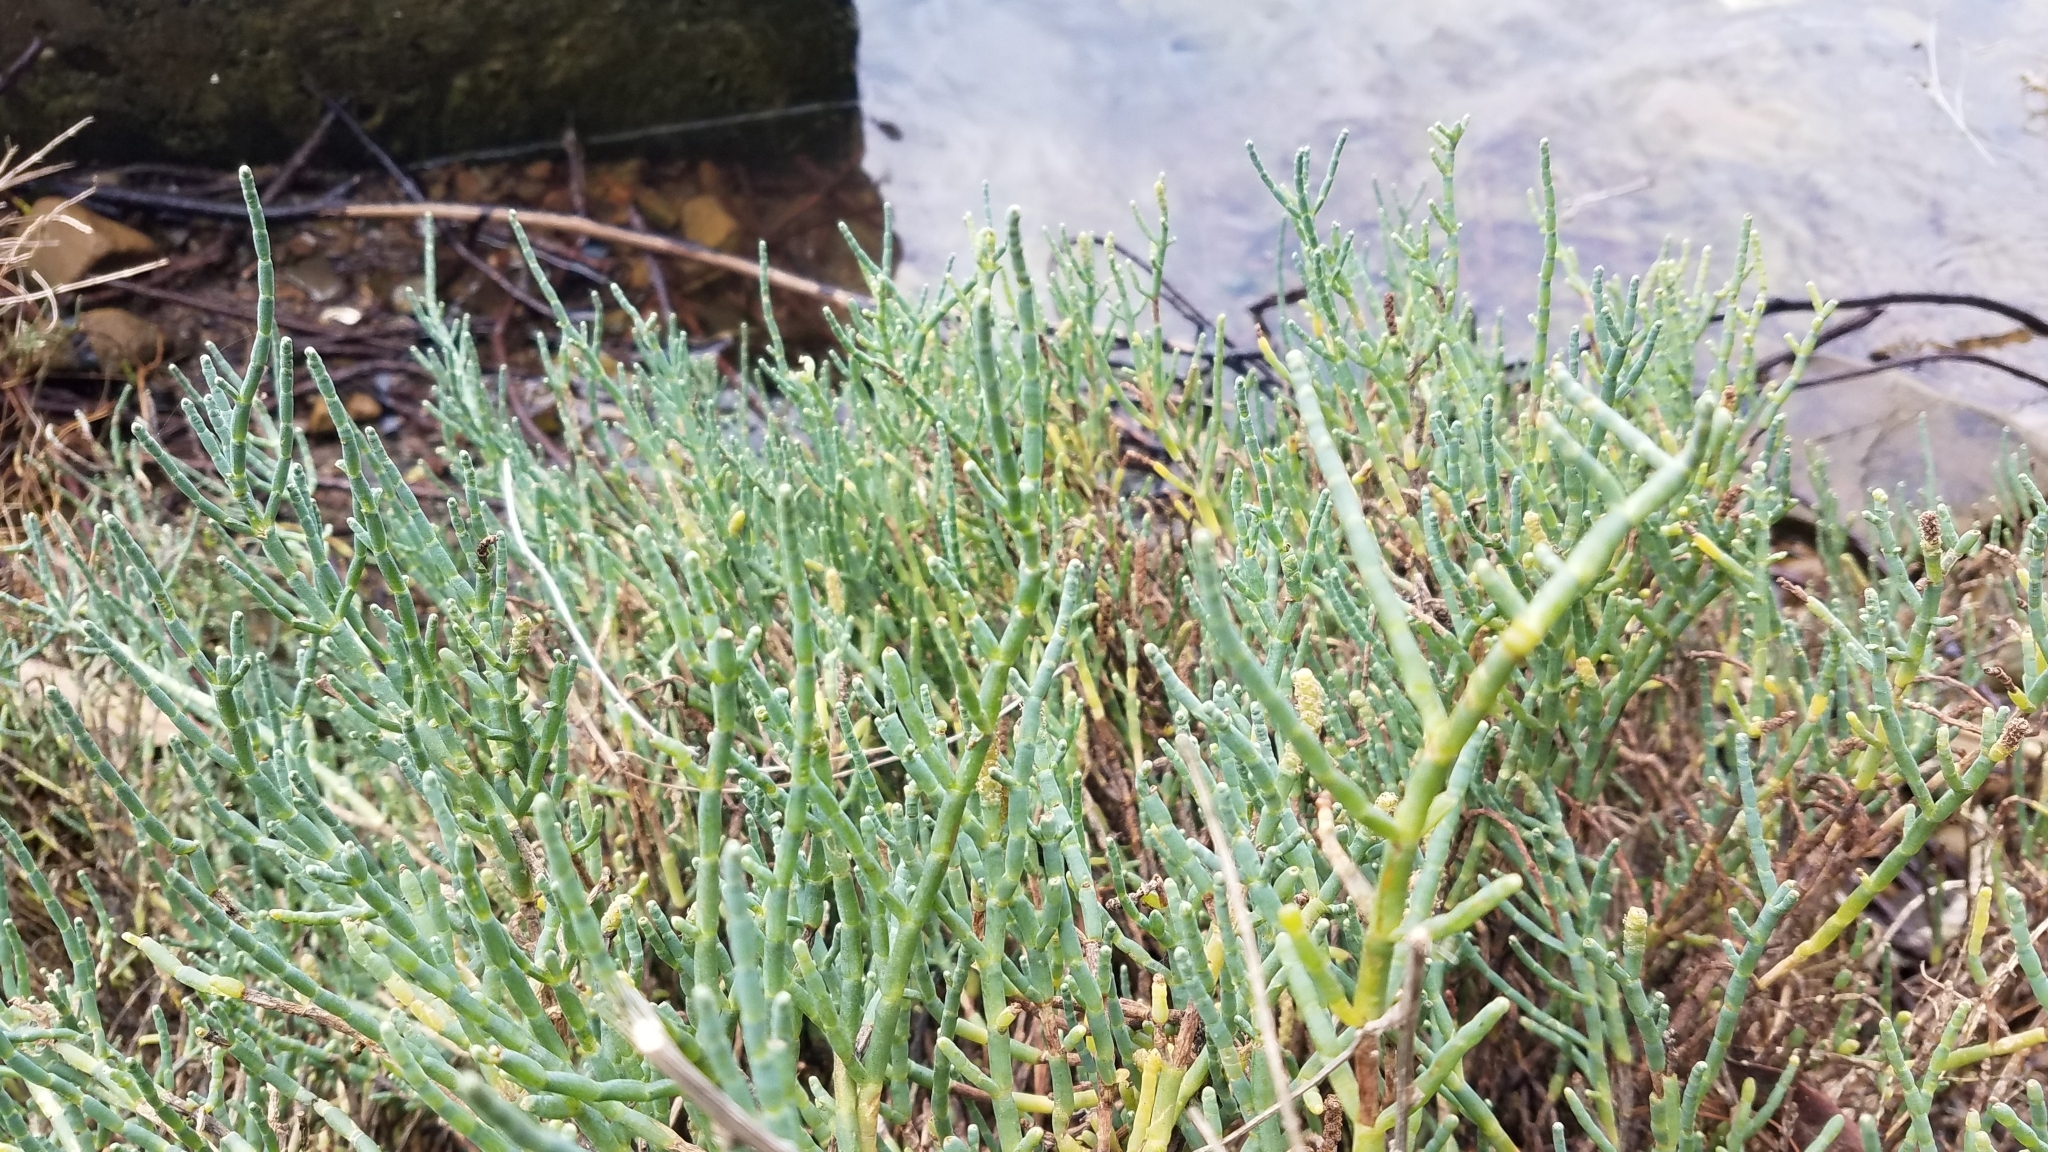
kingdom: Plantae
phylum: Tracheophyta
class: Magnoliopsida
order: Caryophyllales
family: Amaranthaceae
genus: Salicornia
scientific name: Salicornia pacifica
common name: Pacific glasswort
